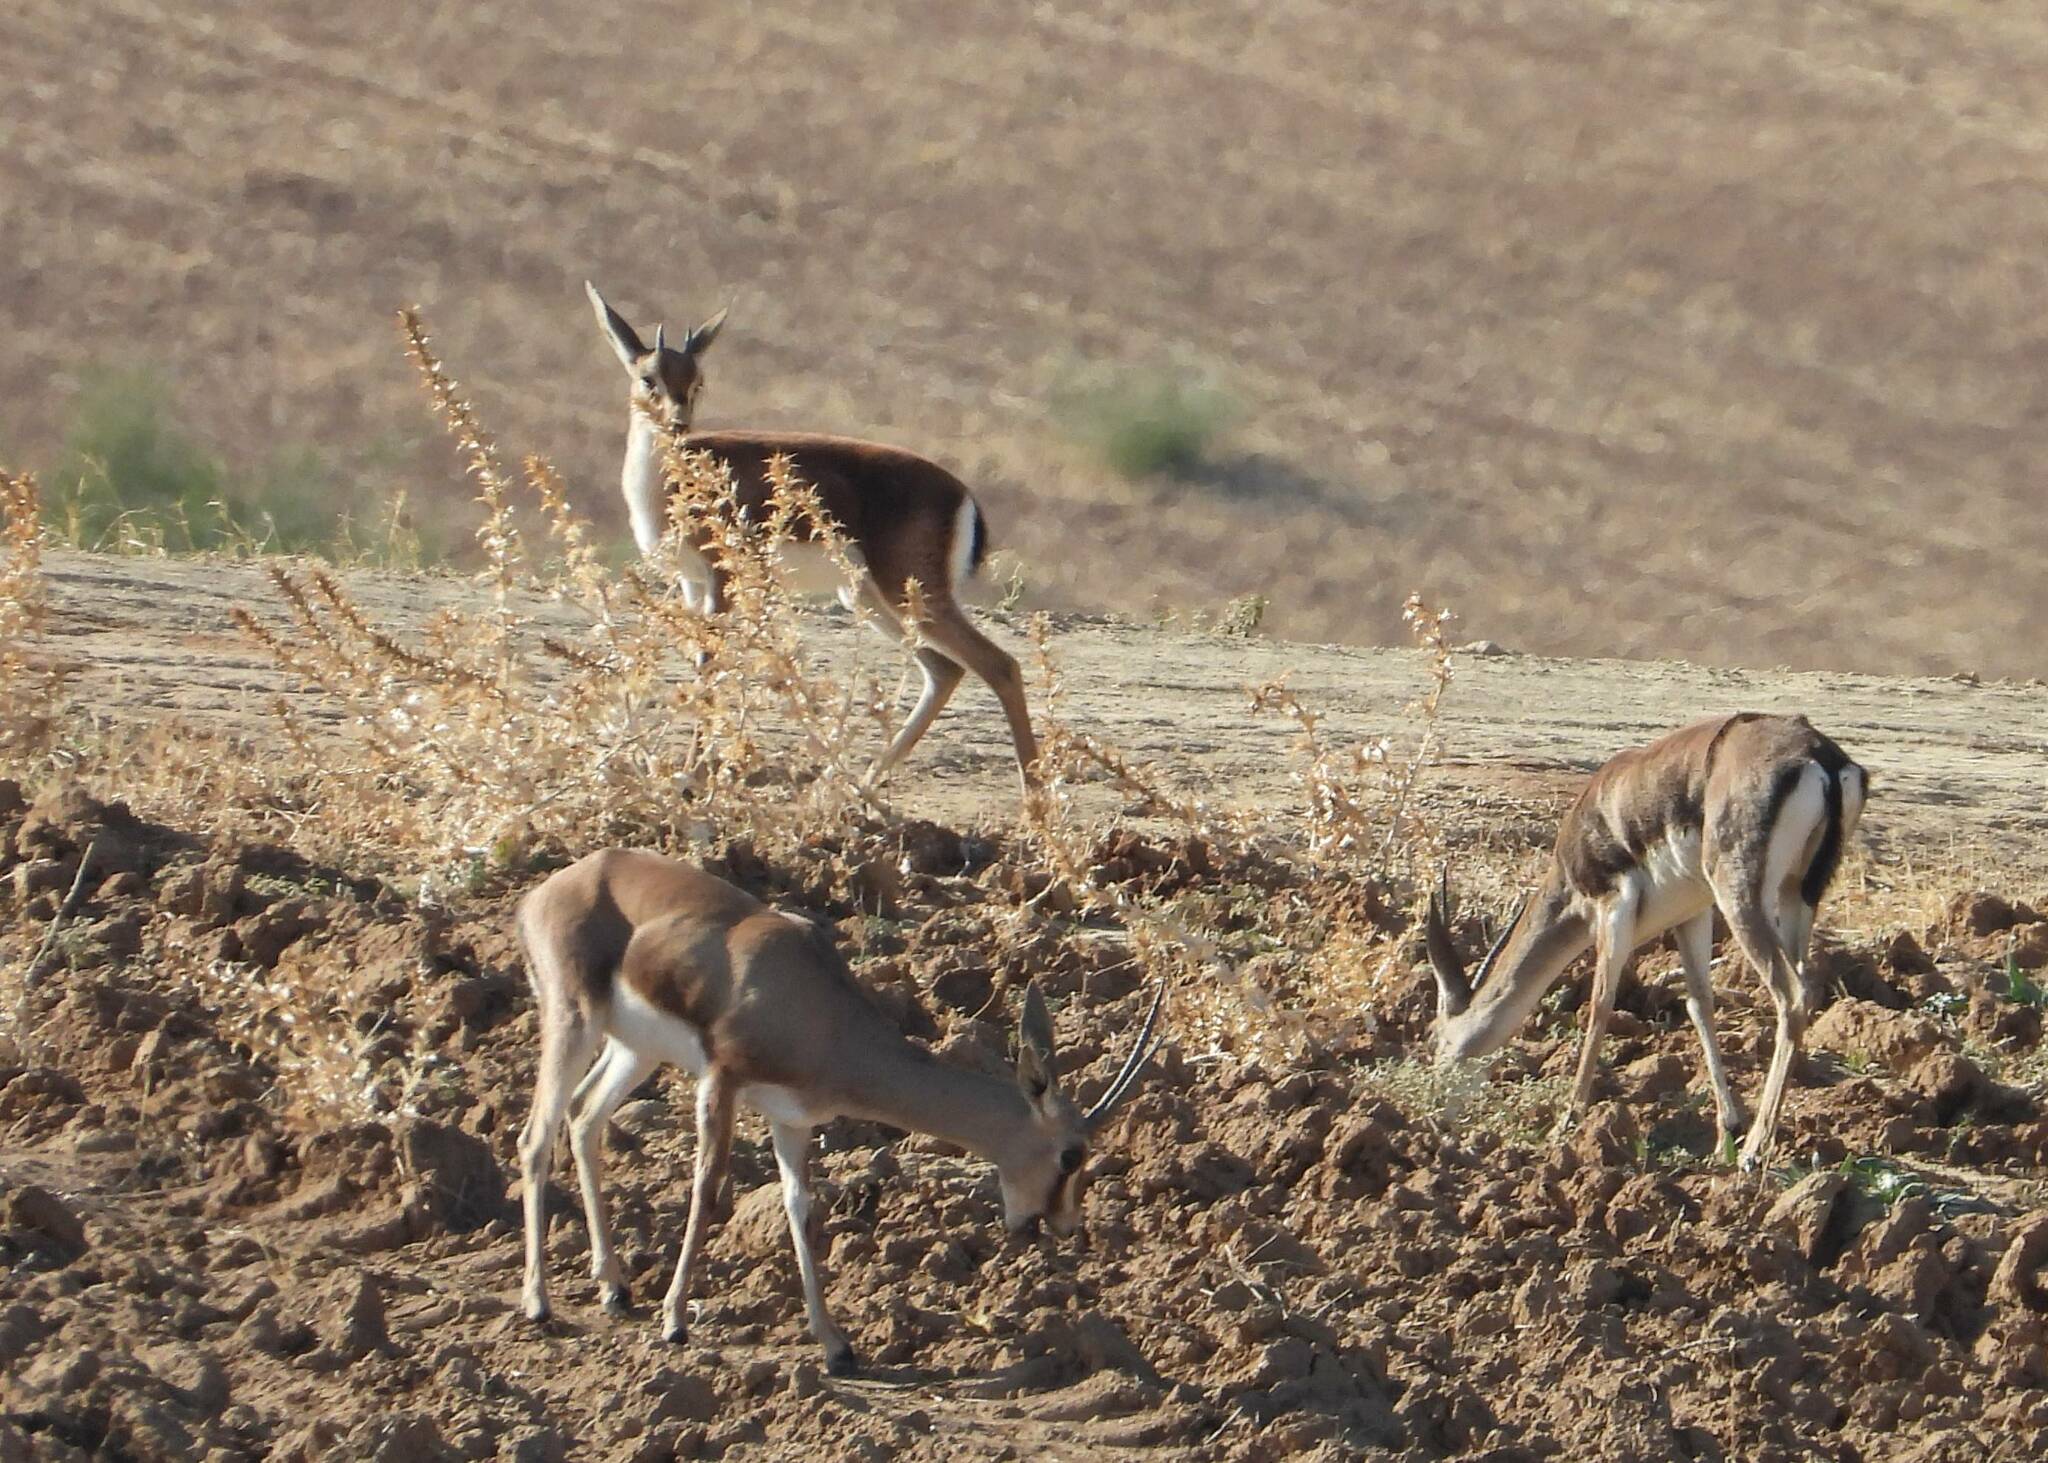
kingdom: Animalia
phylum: Chordata
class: Mammalia
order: Artiodactyla
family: Bovidae
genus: Gazella
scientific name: Gazella cuvieri
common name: Cuvier's gazelle
